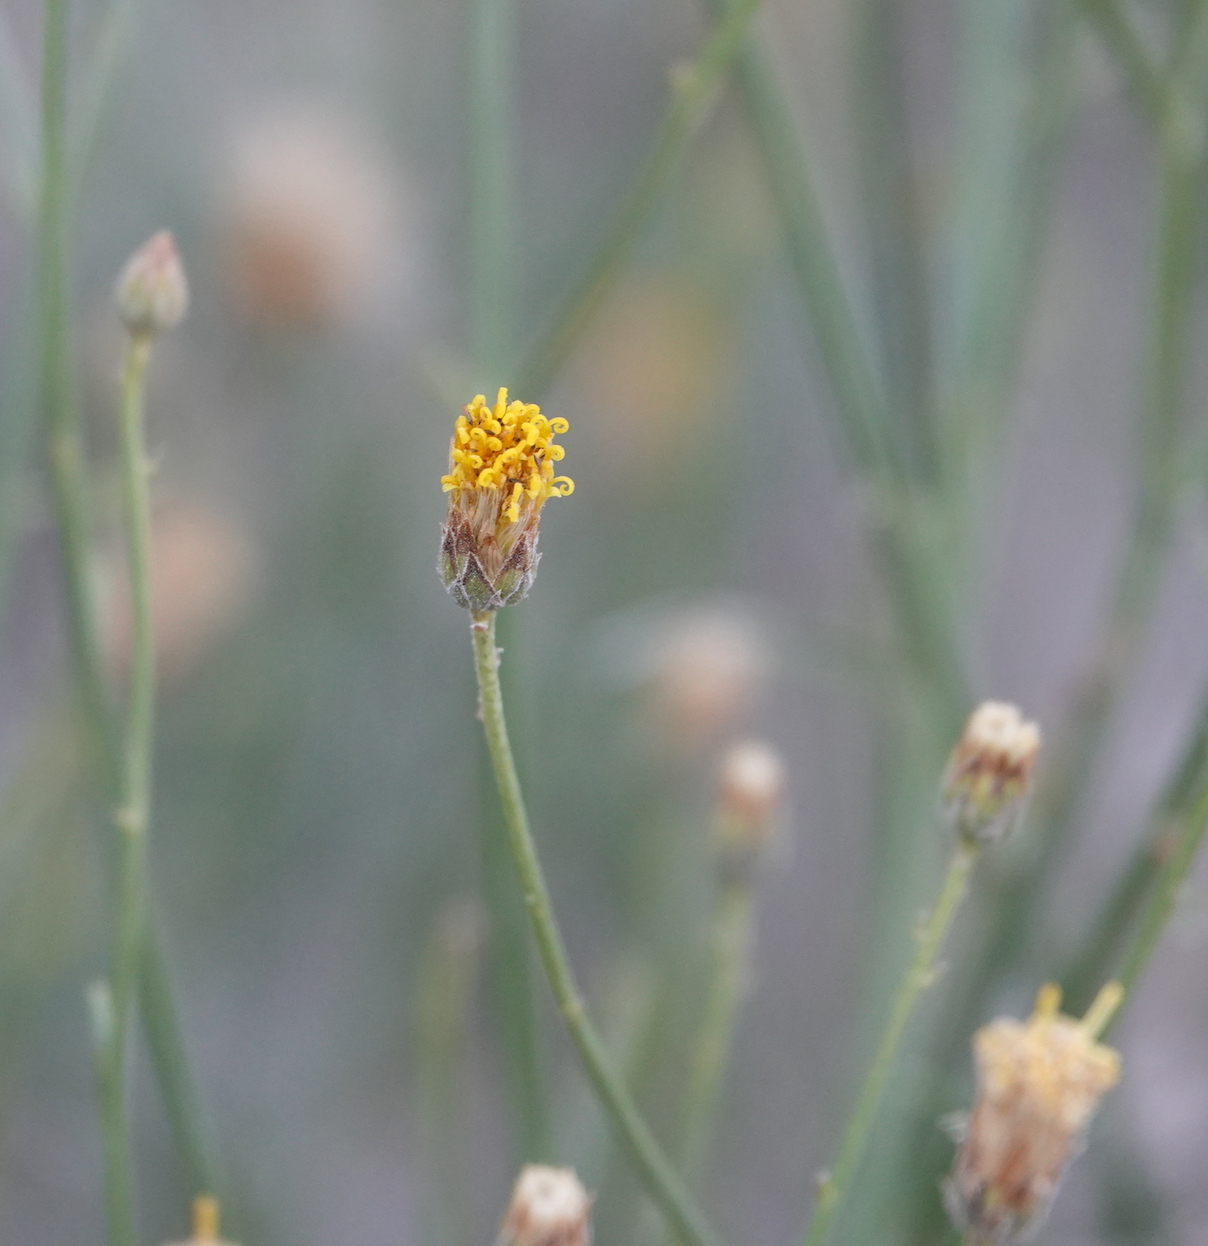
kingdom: Plantae
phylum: Tracheophyta
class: Magnoliopsida
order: Asterales
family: Asteraceae
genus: Bebbia
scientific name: Bebbia juncea
